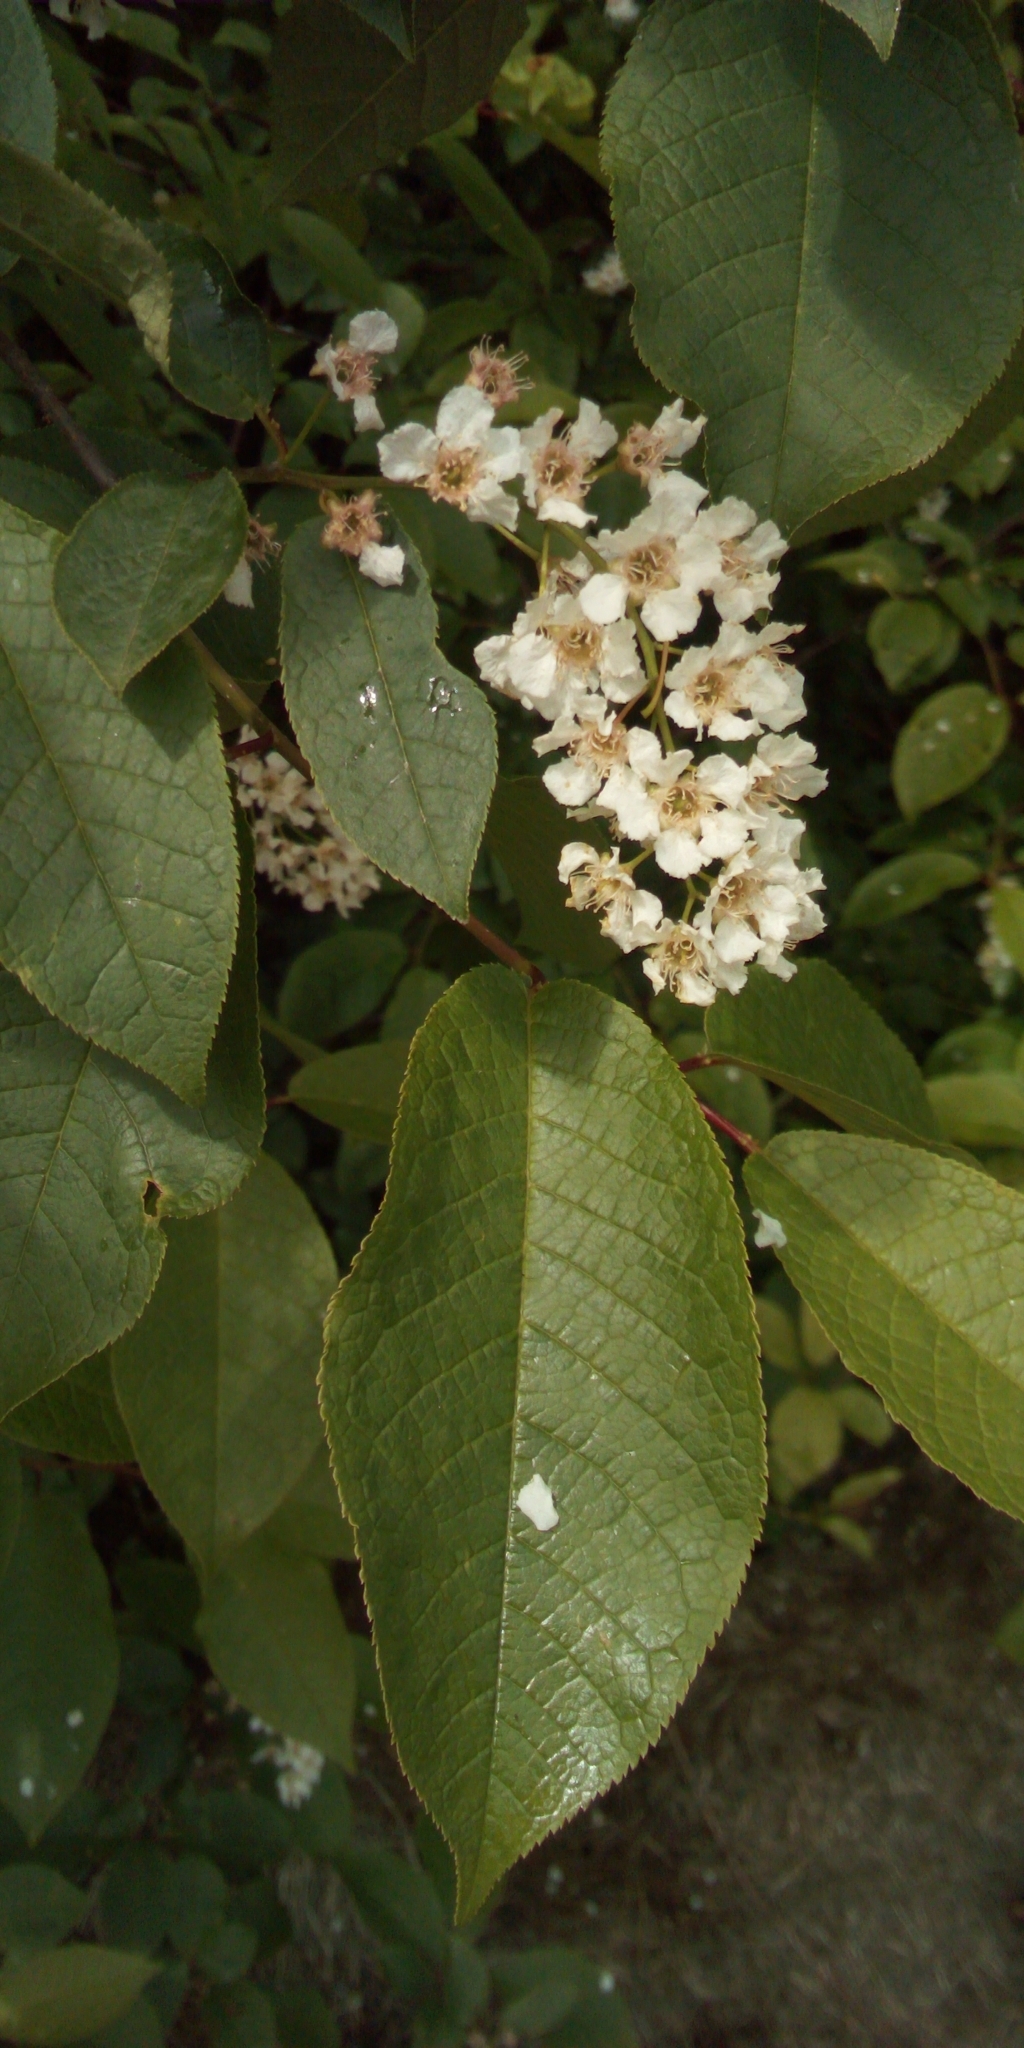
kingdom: Plantae
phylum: Tracheophyta
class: Magnoliopsida
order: Rosales
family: Rosaceae
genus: Prunus
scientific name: Prunus padus
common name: Bird cherry
